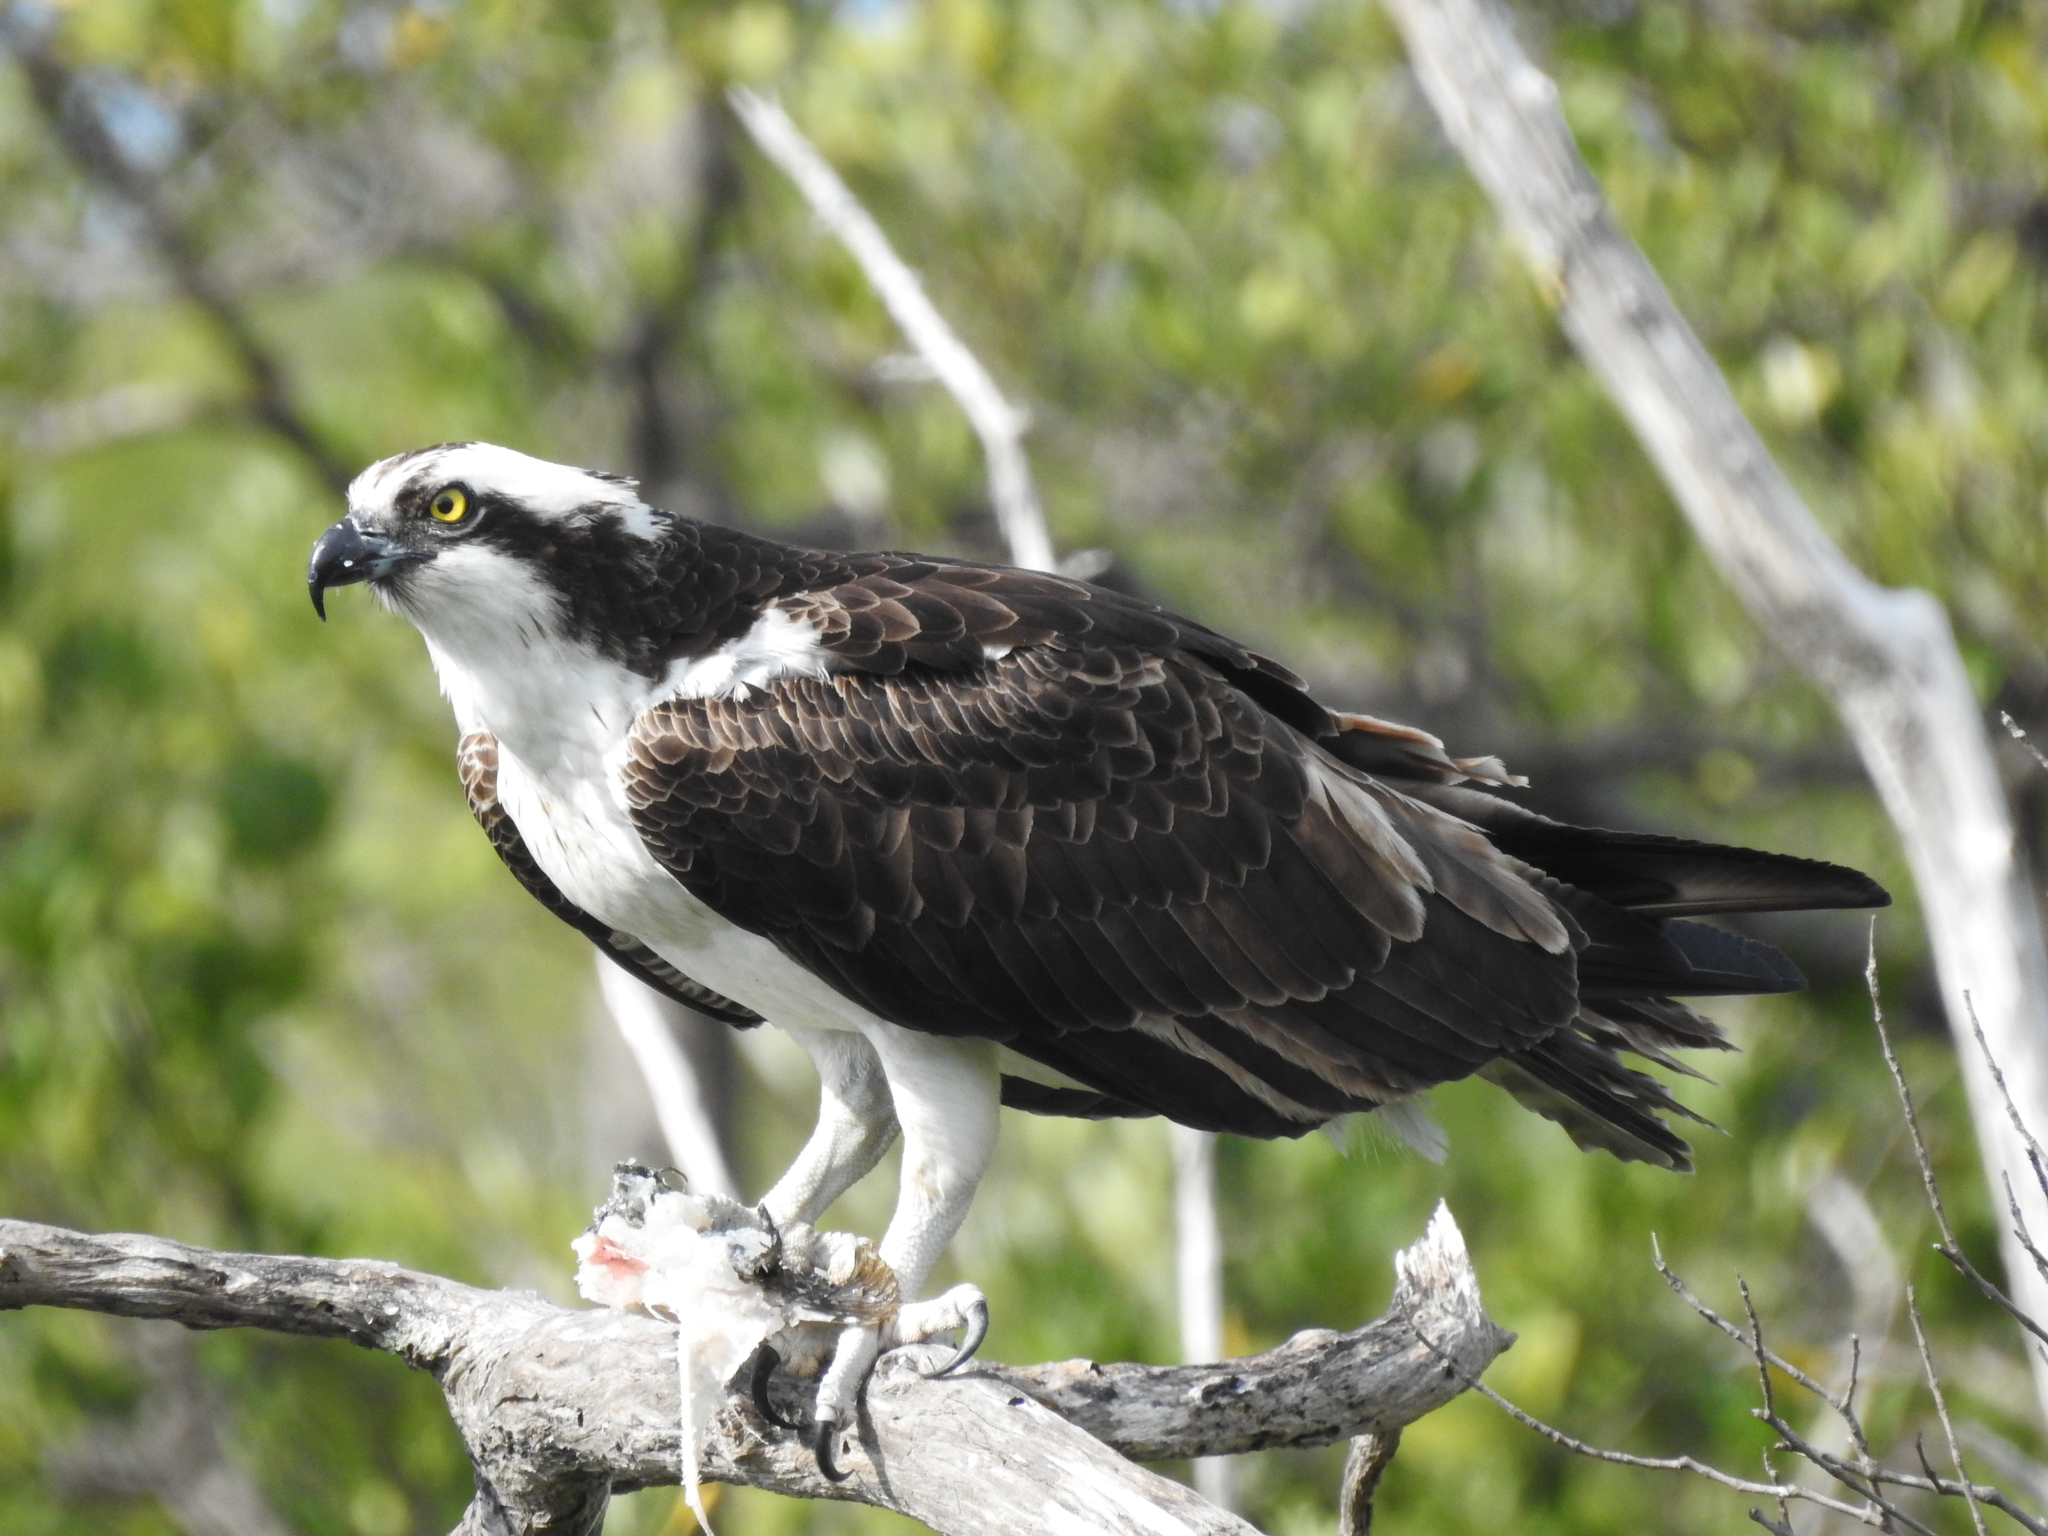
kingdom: Animalia
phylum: Chordata
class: Aves
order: Accipitriformes
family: Pandionidae
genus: Pandion
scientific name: Pandion haliaetus
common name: Osprey
